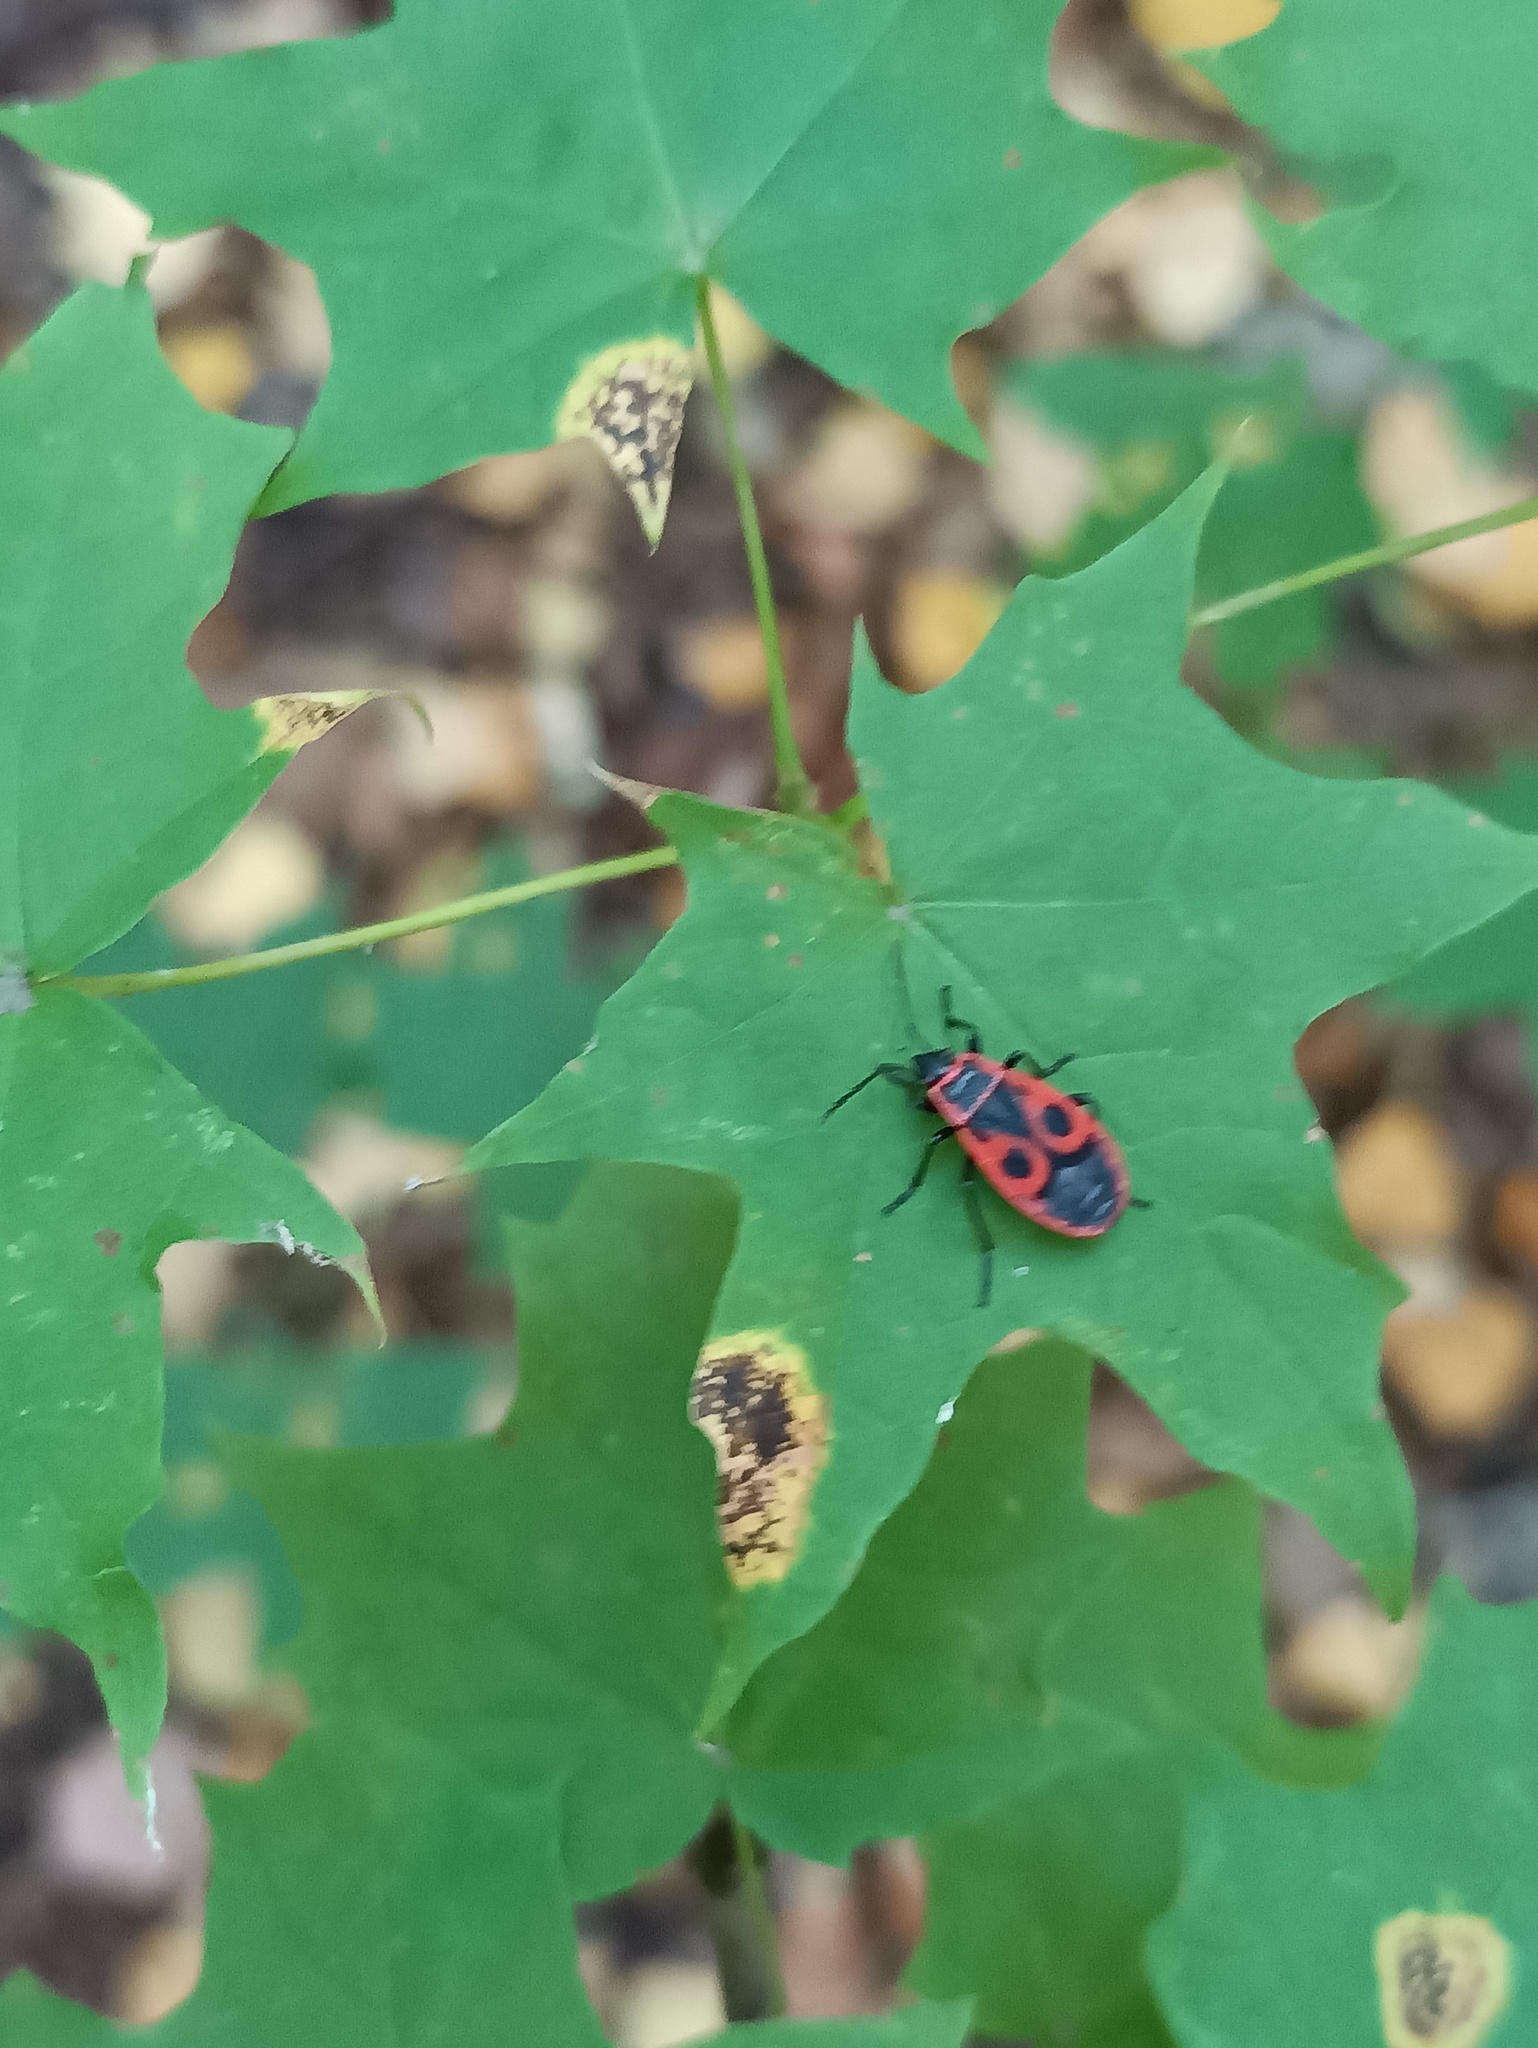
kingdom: Animalia
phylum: Arthropoda
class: Insecta
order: Hemiptera
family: Pyrrhocoridae
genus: Pyrrhocoris
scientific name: Pyrrhocoris apterus
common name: Firebug
